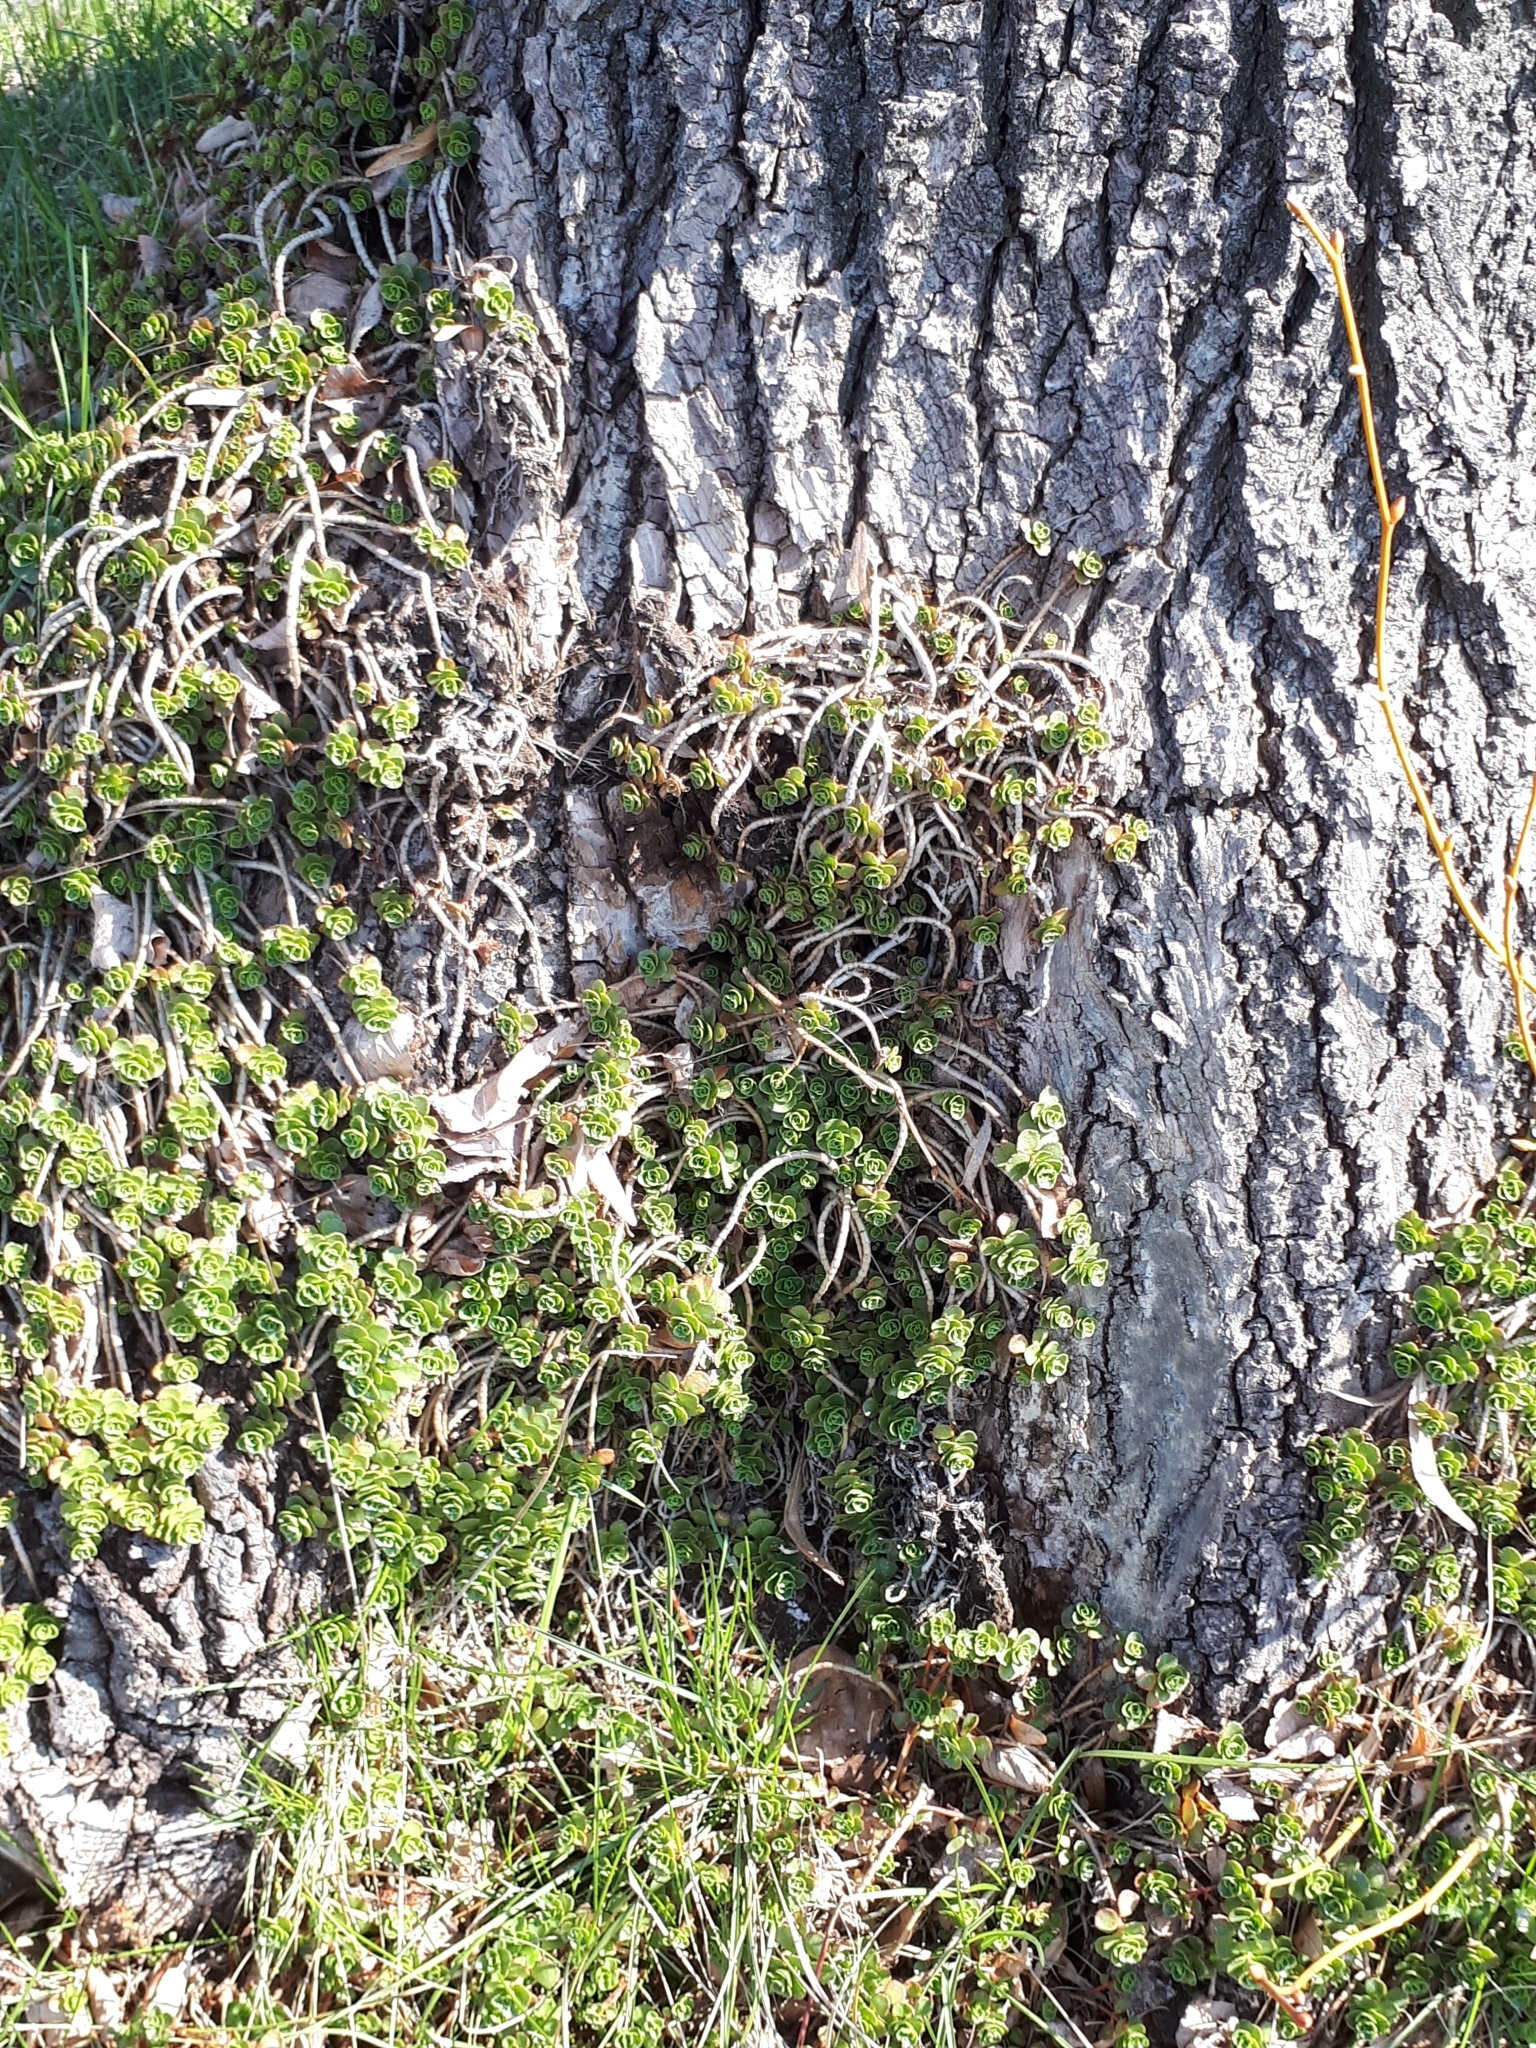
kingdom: Plantae
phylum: Tracheophyta
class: Magnoliopsida
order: Saxifragales
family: Crassulaceae
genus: Phedimus
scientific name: Phedimus spurius
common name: Caucasian stonecrop
